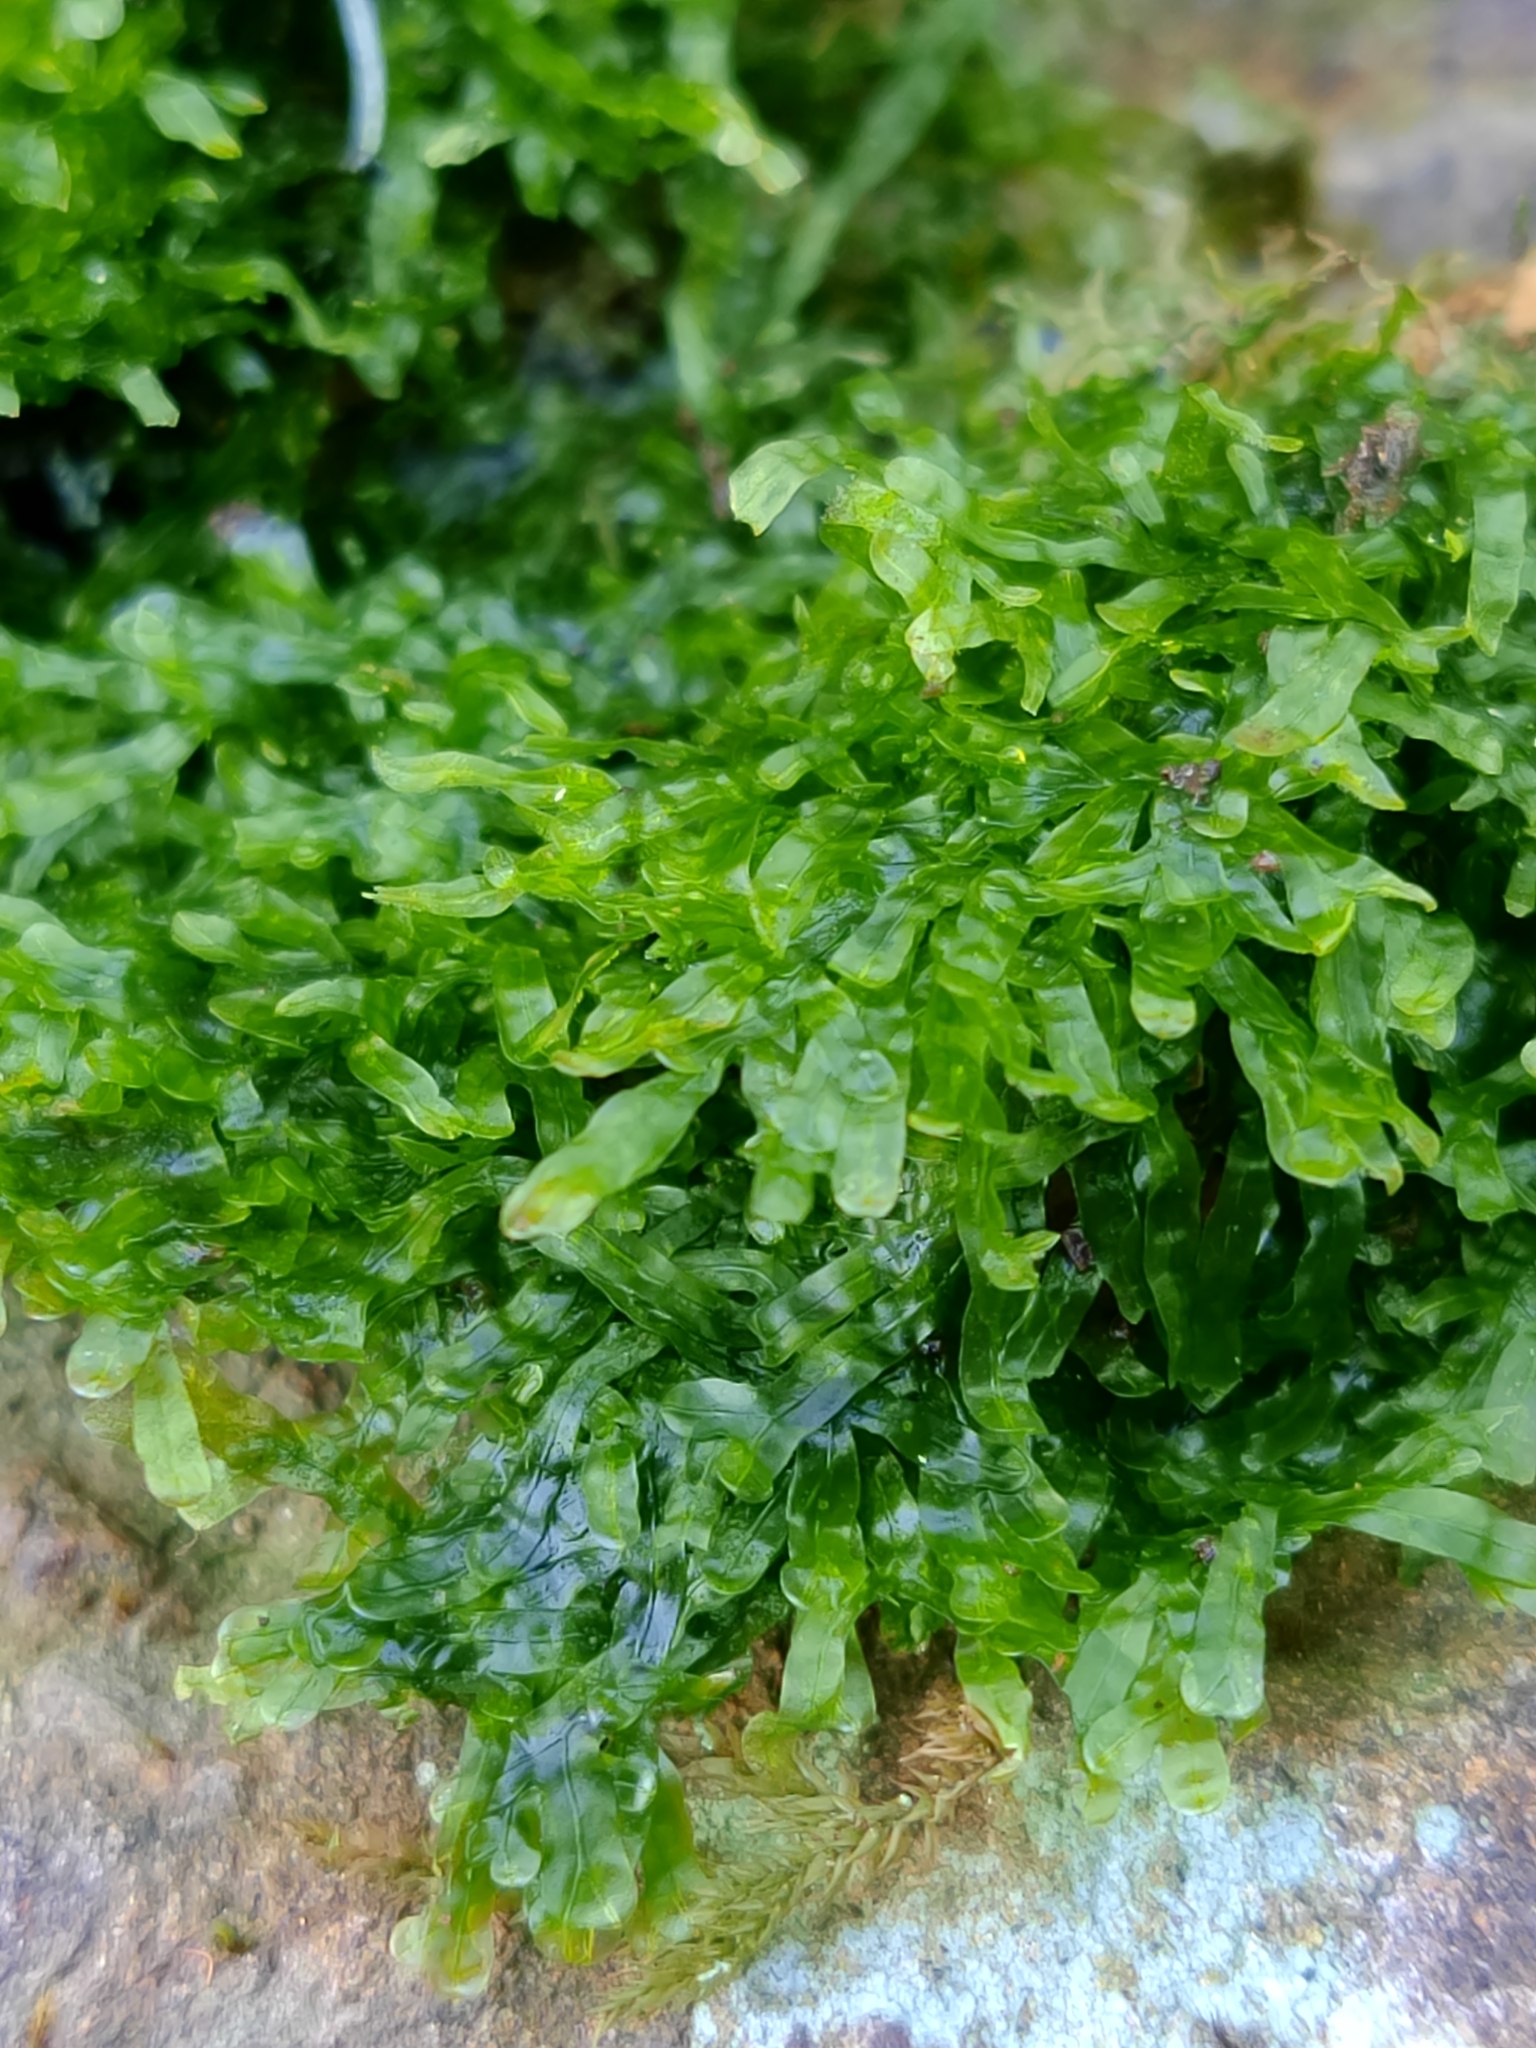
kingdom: Plantae
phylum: Marchantiophyta
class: Jungermanniopsida
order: Metzgeriales
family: Metzgeriaceae
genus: Metzgeria
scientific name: Metzgeria furcata
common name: Forked veilwort
